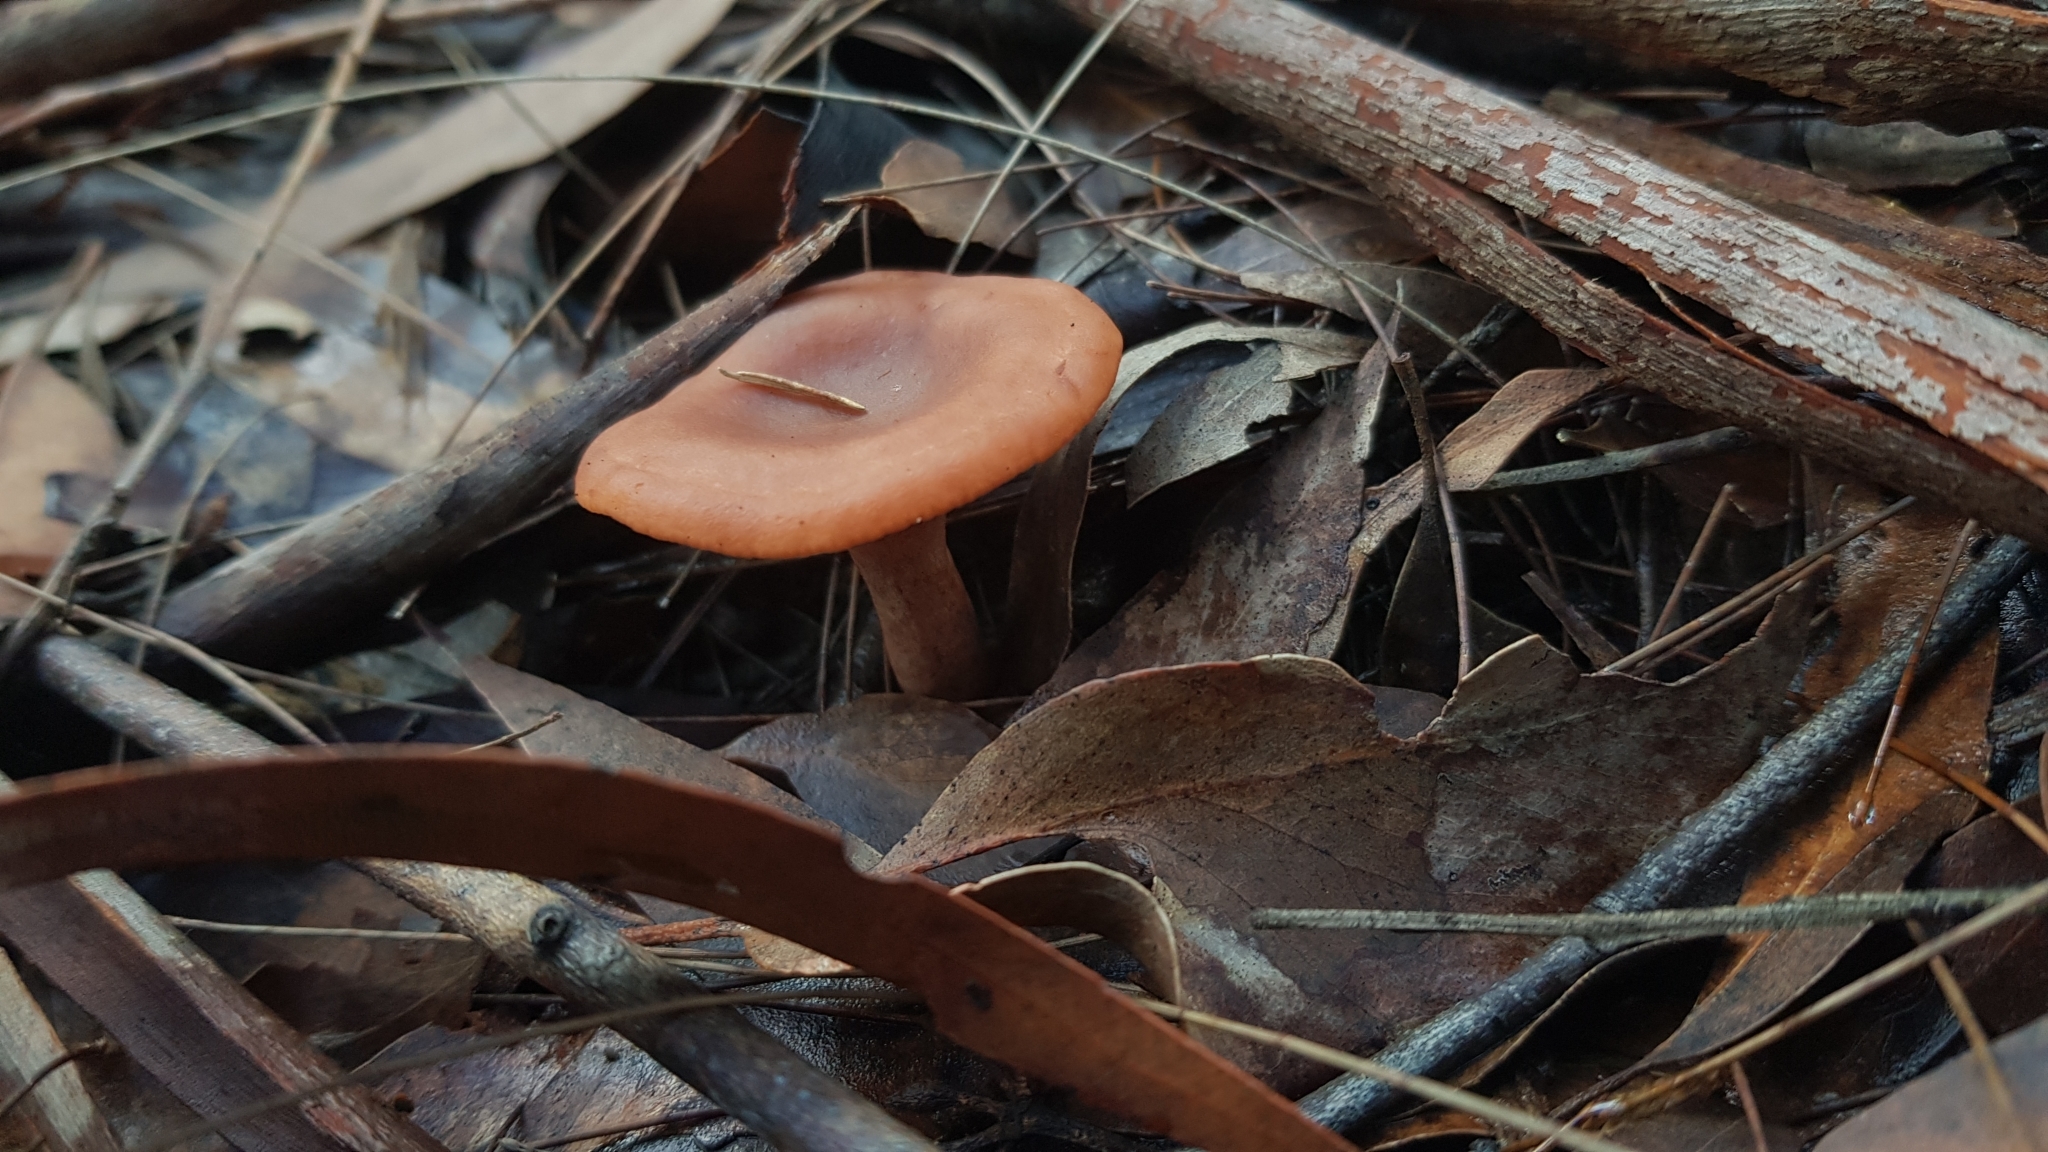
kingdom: Fungi
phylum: Basidiomycota
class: Agaricomycetes
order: Russulales
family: Russulaceae
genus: Lactarius
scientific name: Lactarius eucalypti
